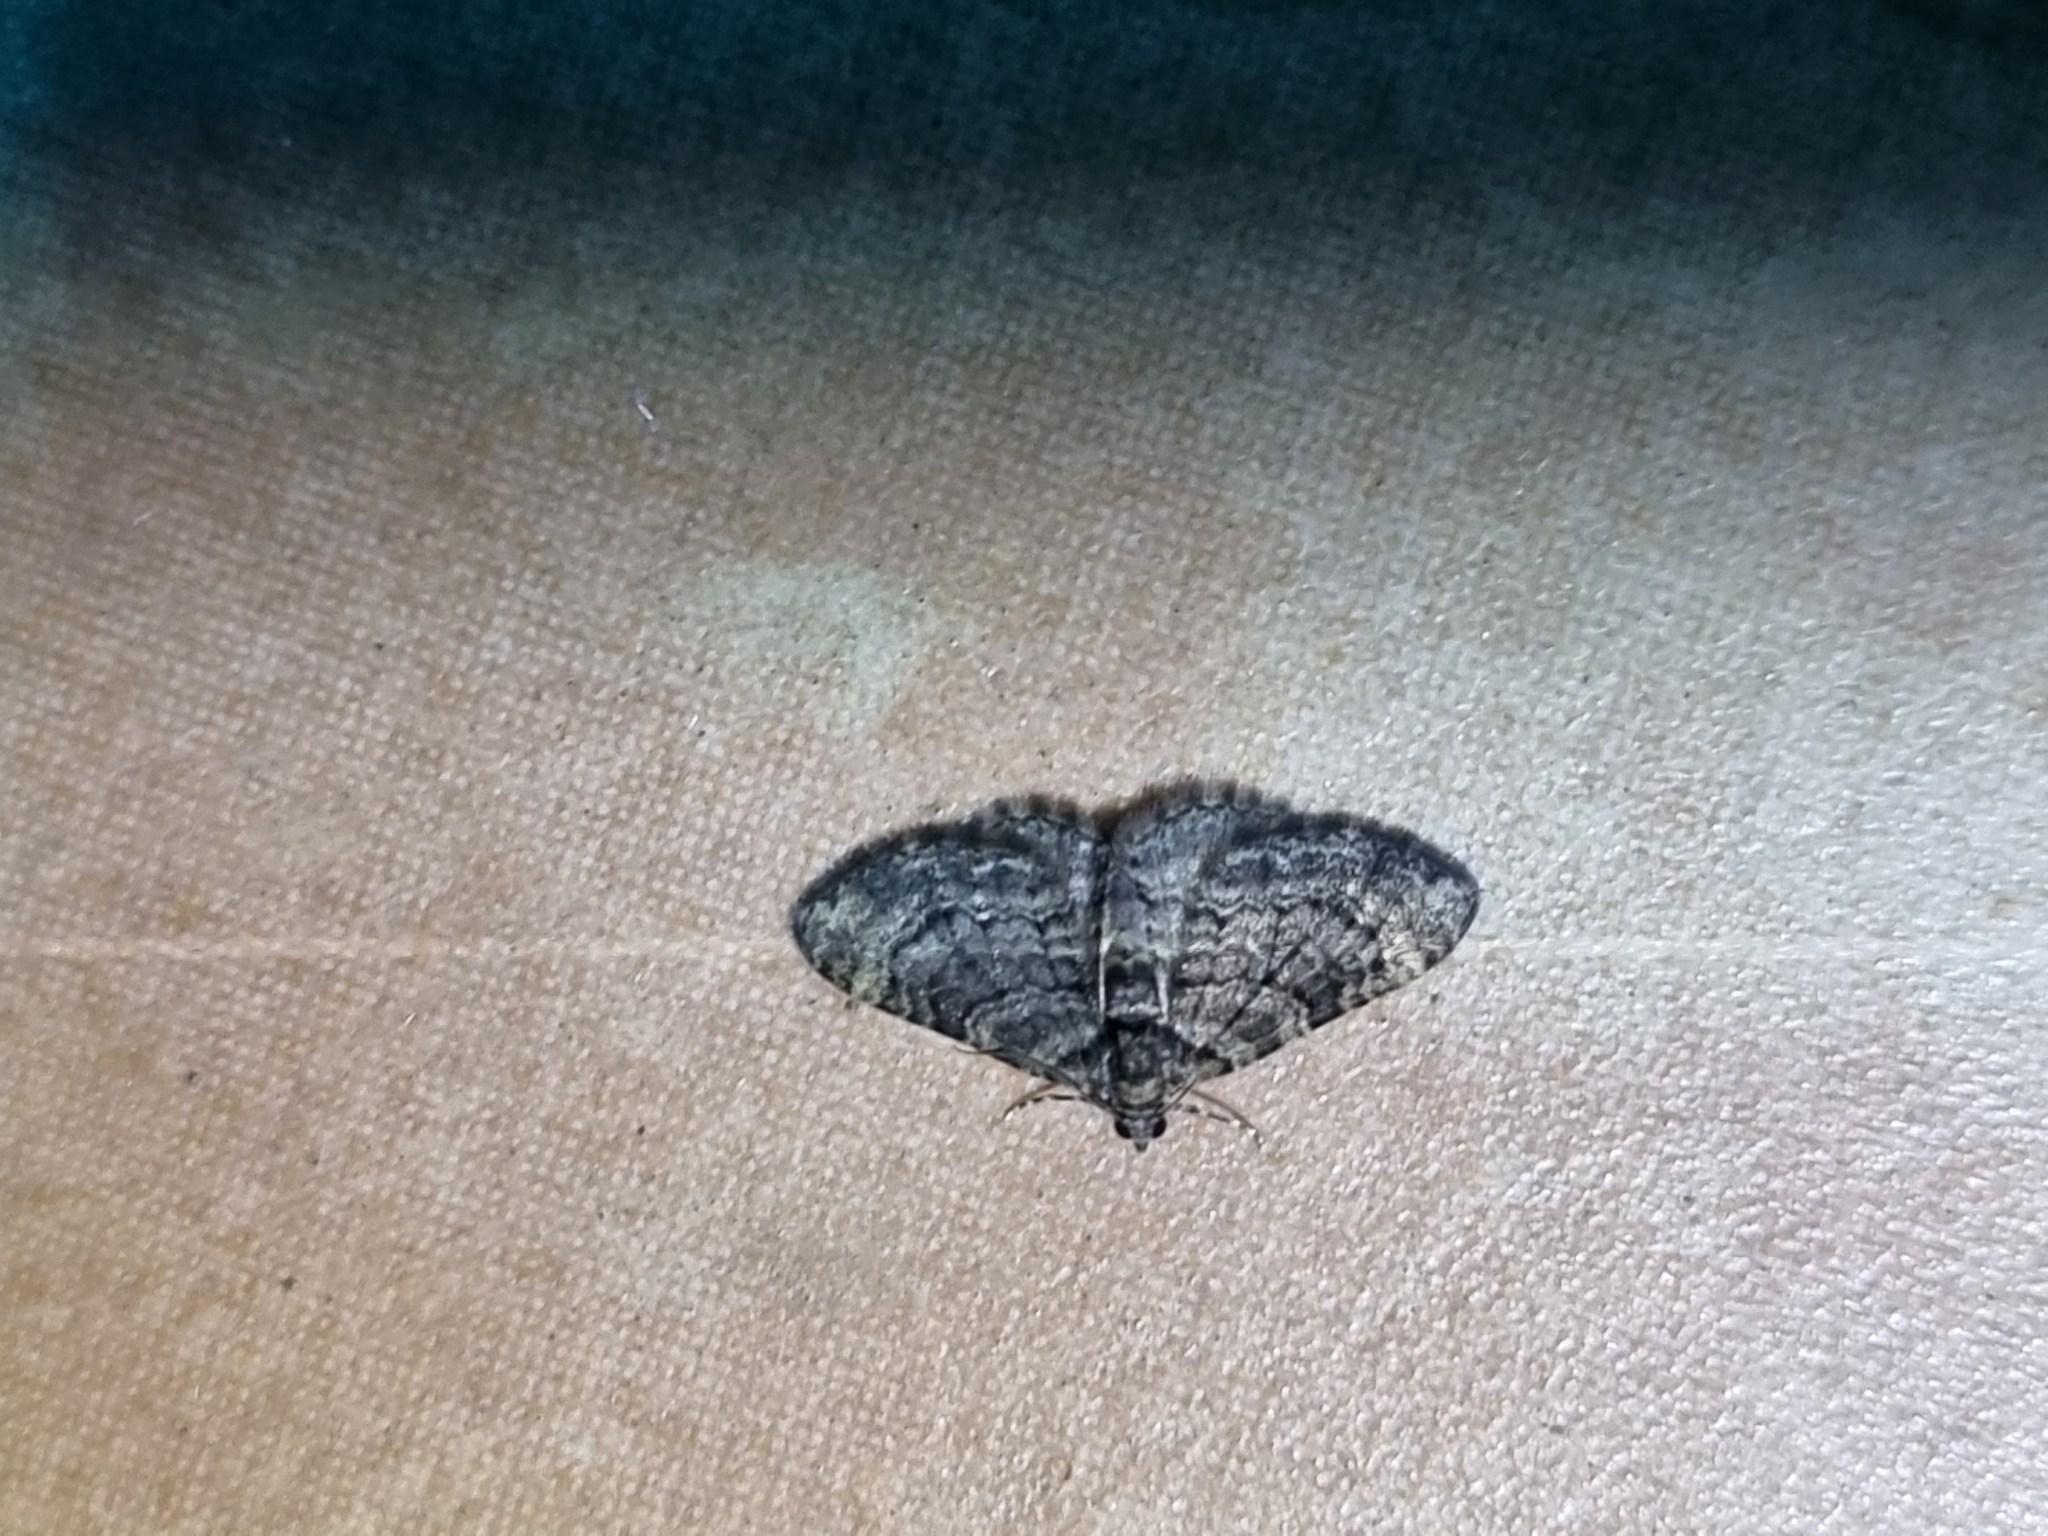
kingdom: Animalia
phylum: Arthropoda
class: Insecta
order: Lepidoptera
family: Geometridae
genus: Epyaxa
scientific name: Epyaxa sodaliata
